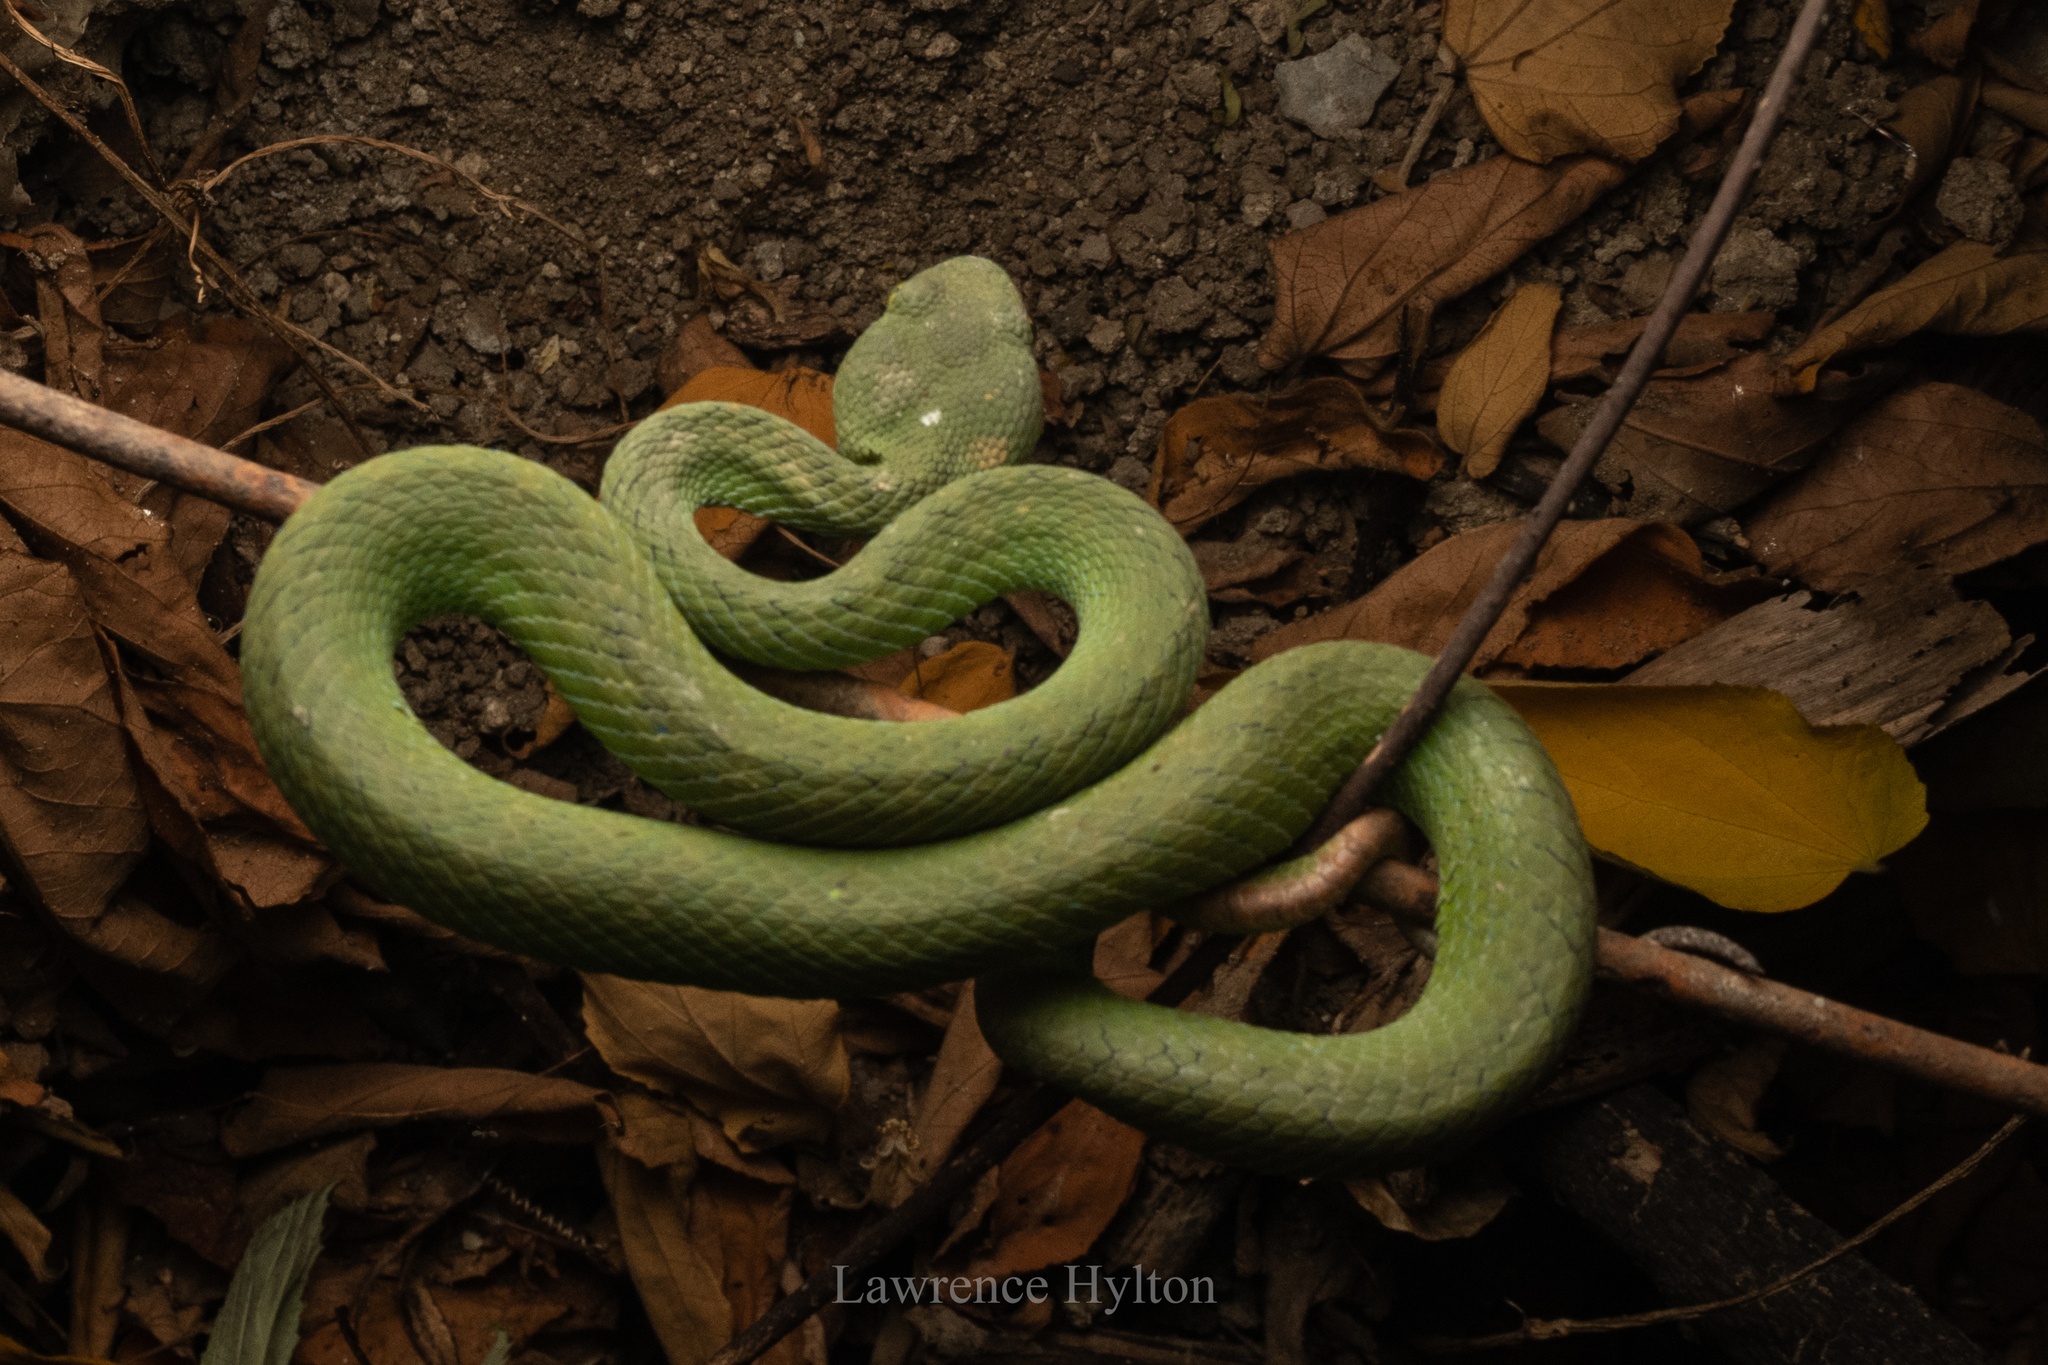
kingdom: Animalia
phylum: Chordata
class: Squamata
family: Viperidae
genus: Trimeresurus
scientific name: Trimeresurus macrops
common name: Kramer's pit viper
